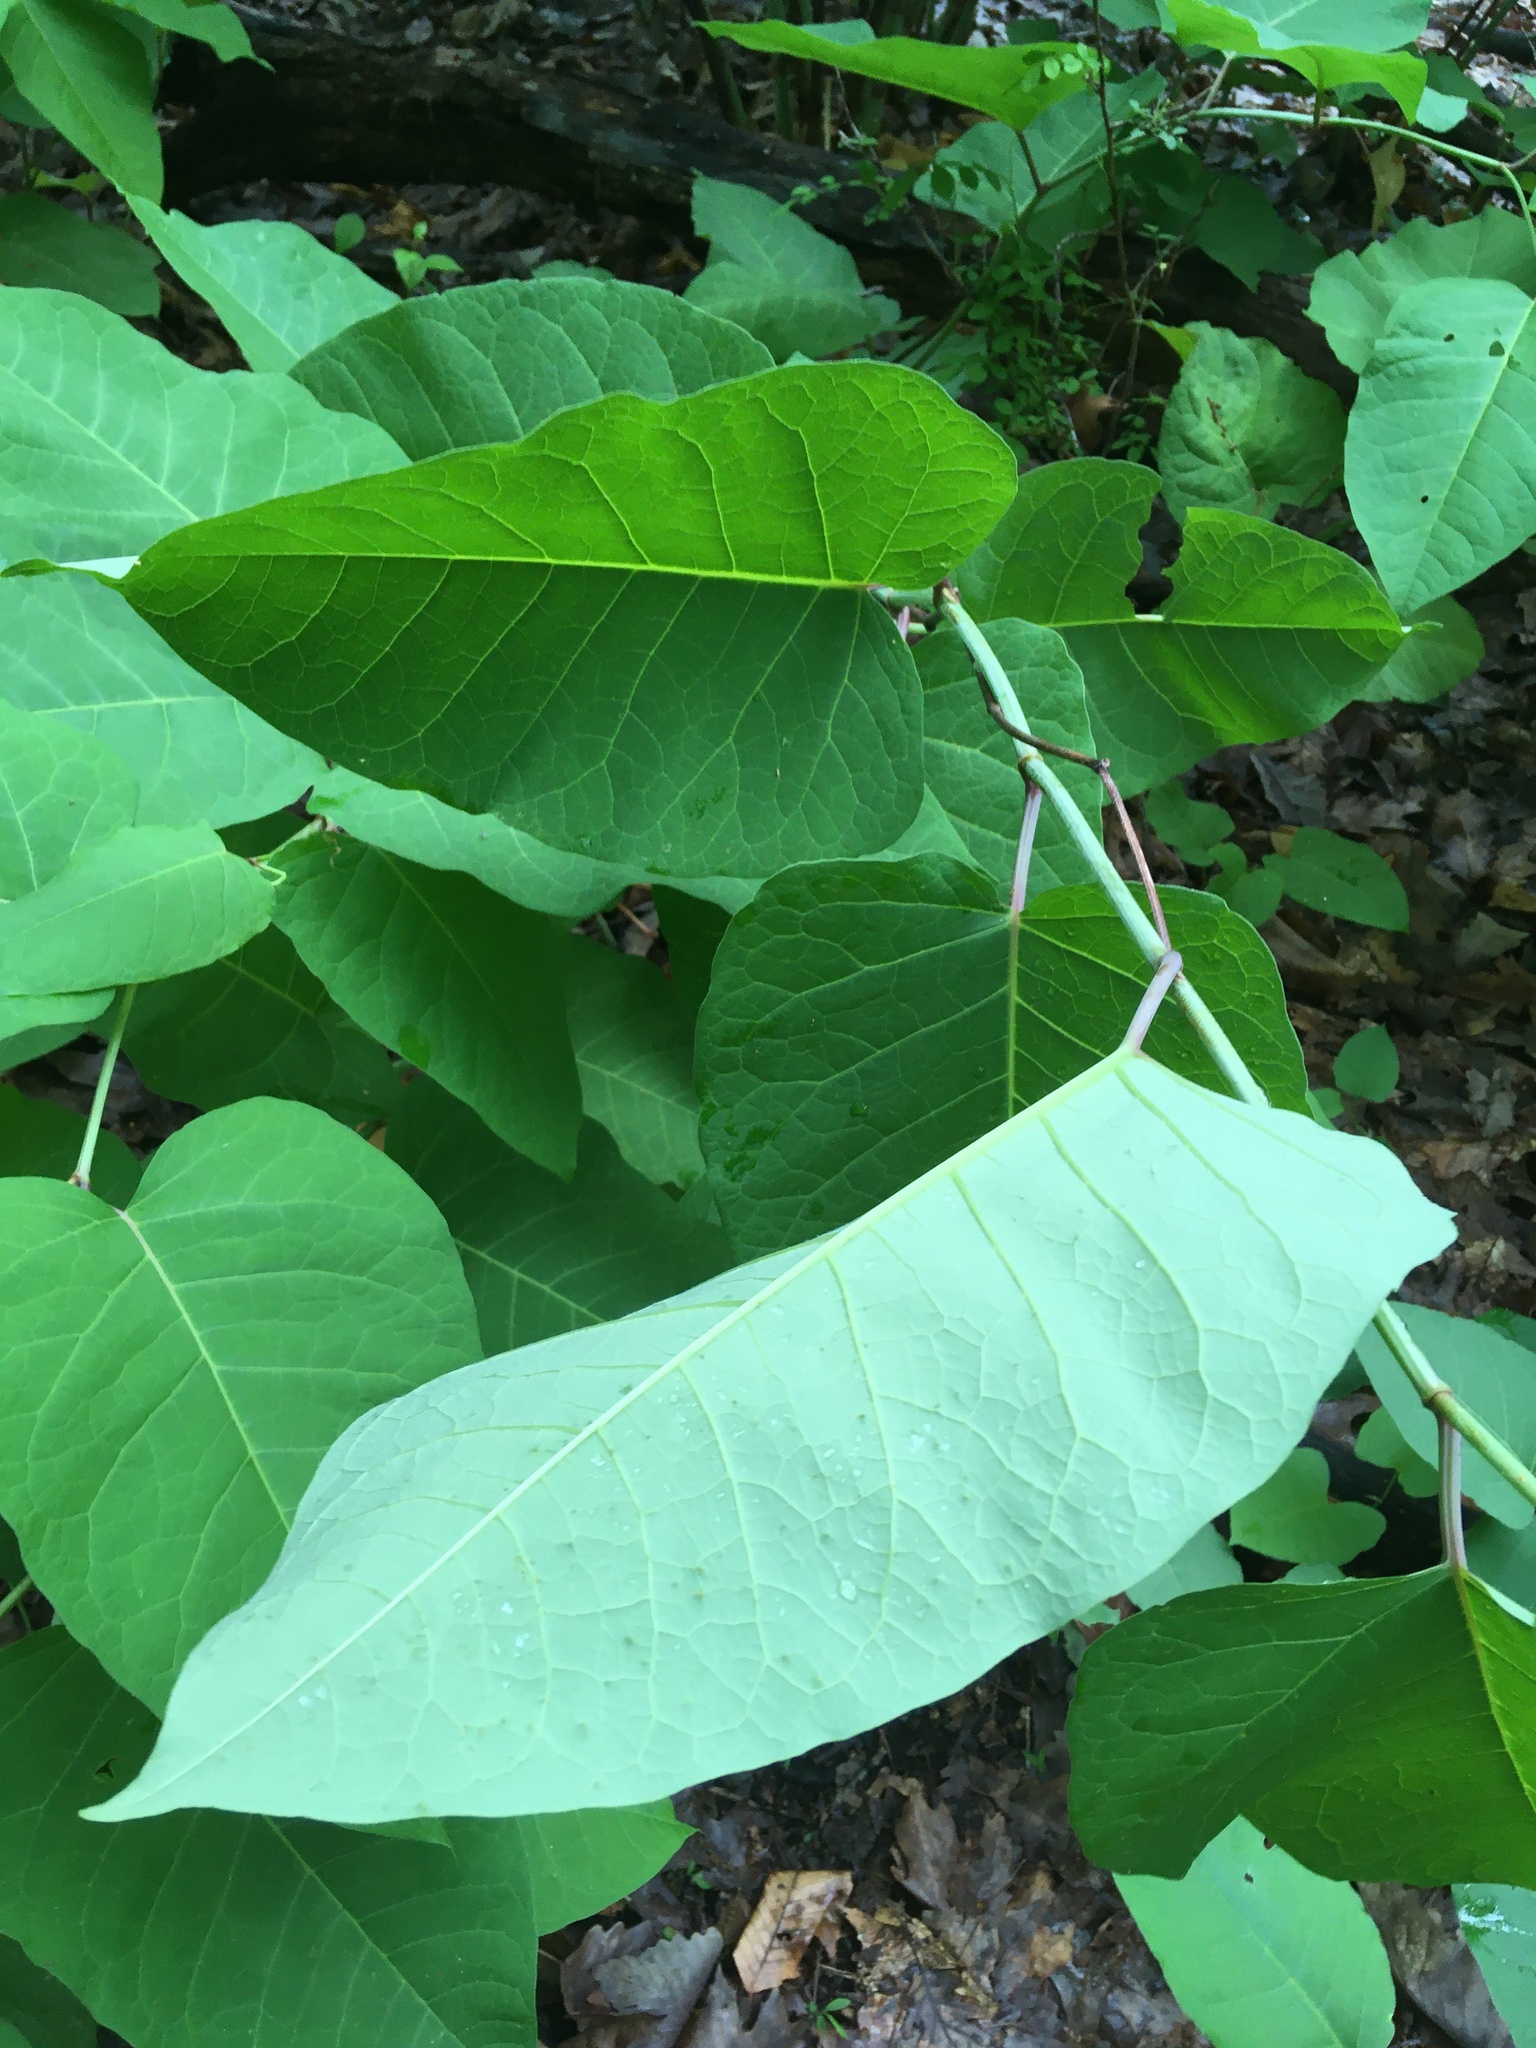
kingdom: Plantae
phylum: Tracheophyta
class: Magnoliopsida
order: Caryophyllales
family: Polygonaceae
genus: Reynoutria
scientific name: Reynoutria sachalinensis
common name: Giant knotweed
